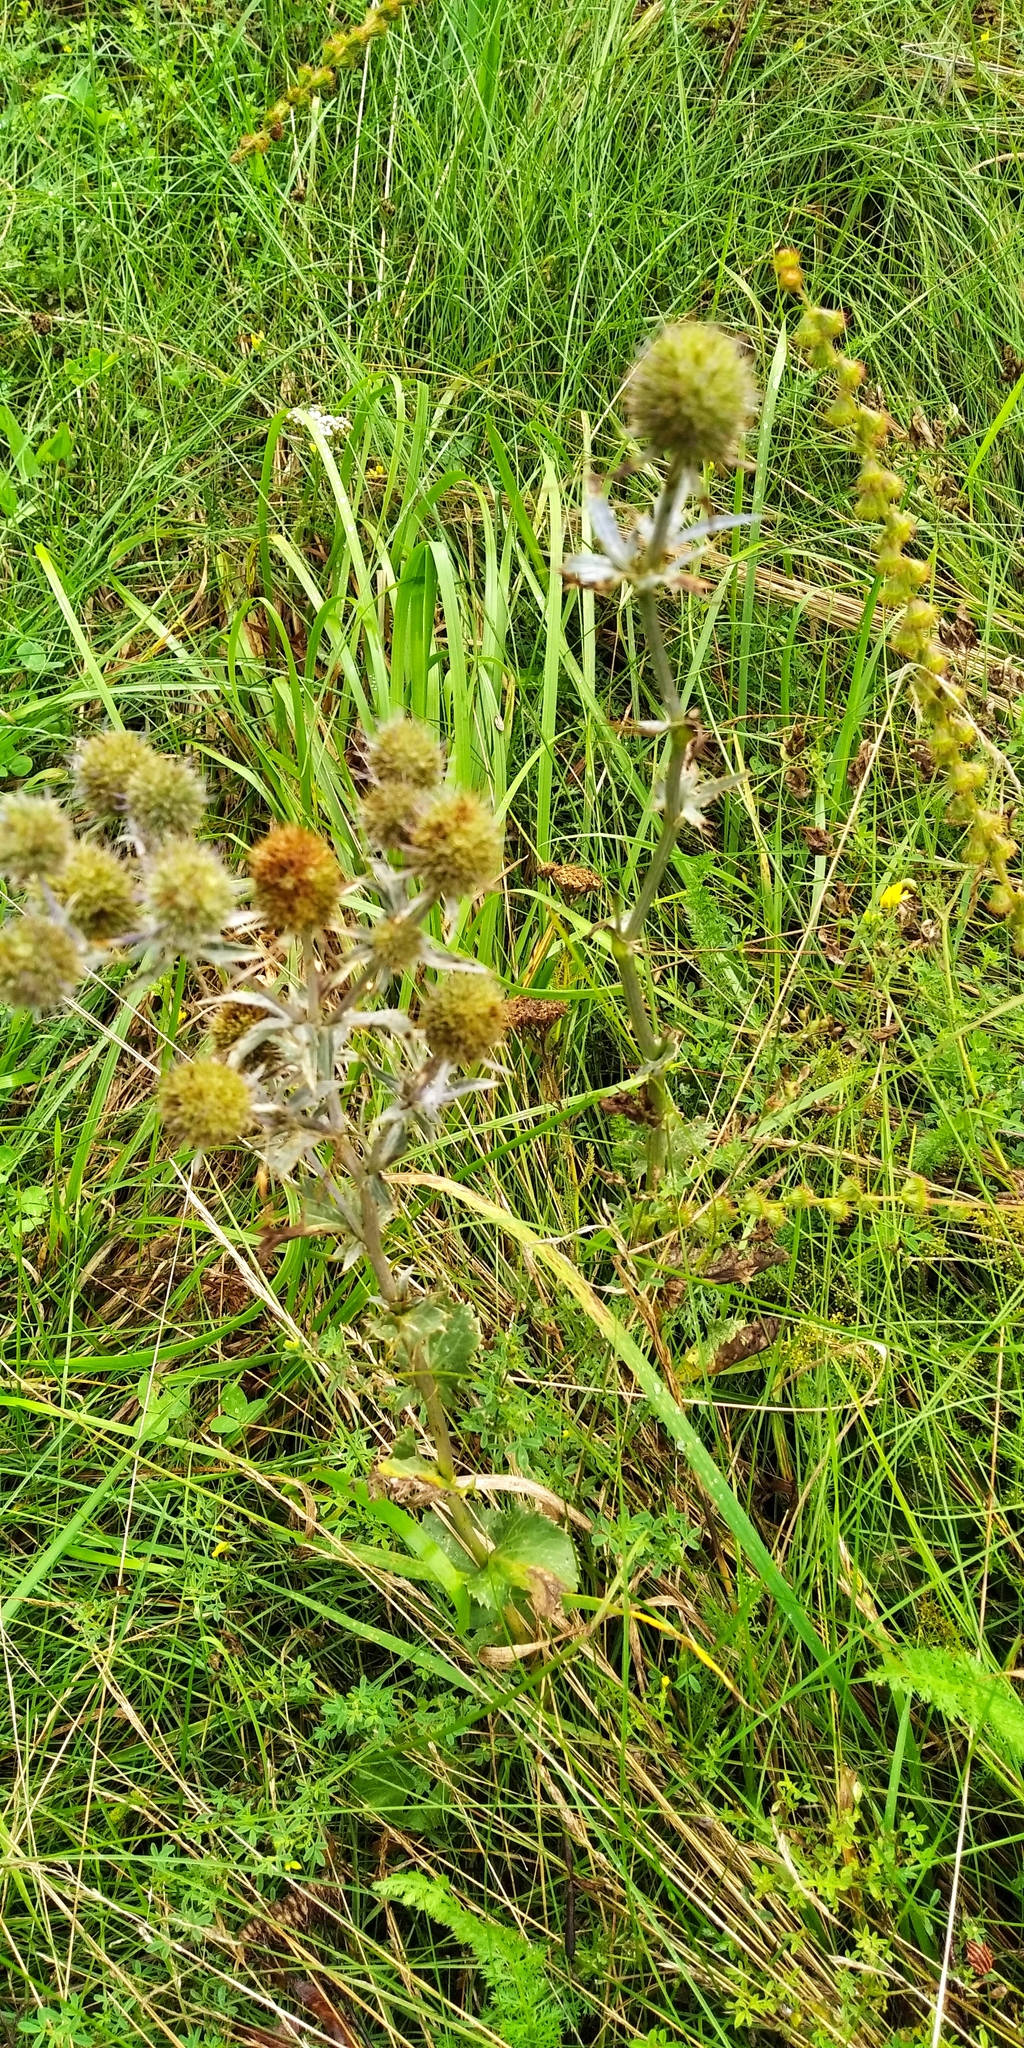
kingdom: Plantae
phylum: Tracheophyta
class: Magnoliopsida
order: Apiales
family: Apiaceae
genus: Eryngium
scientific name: Eryngium planum
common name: Blue eryngo
